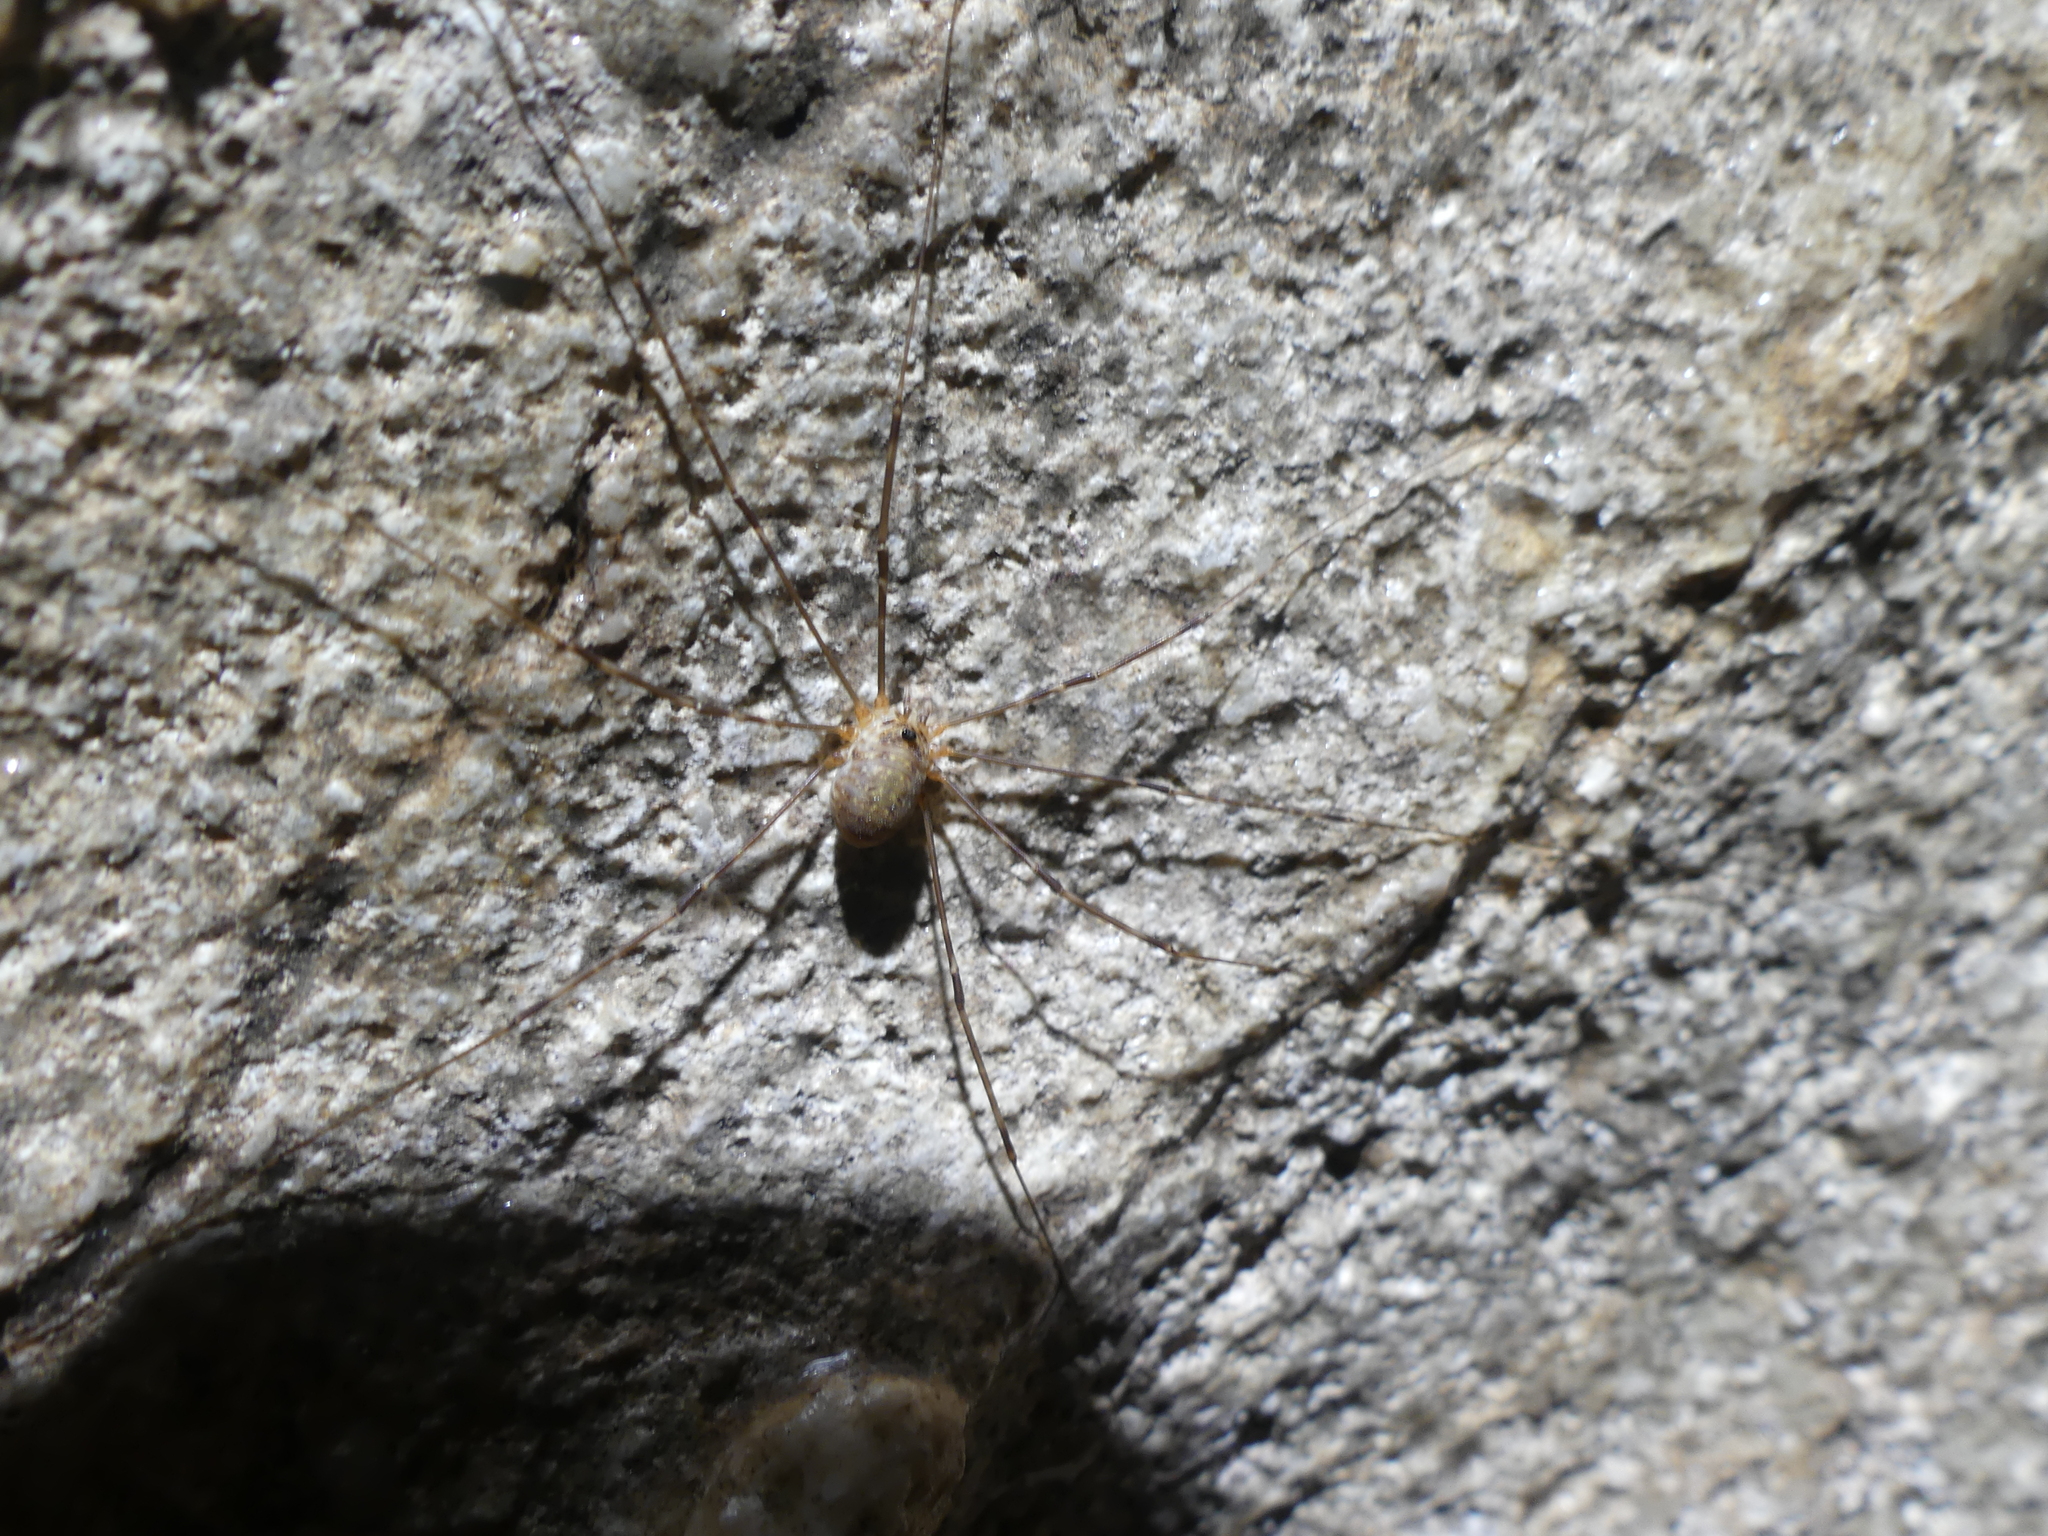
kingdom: Animalia
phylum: Arthropoda
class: Arachnida
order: Opiliones
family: Phalangiidae
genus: Amilenus
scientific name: Amilenus aurantiacus
